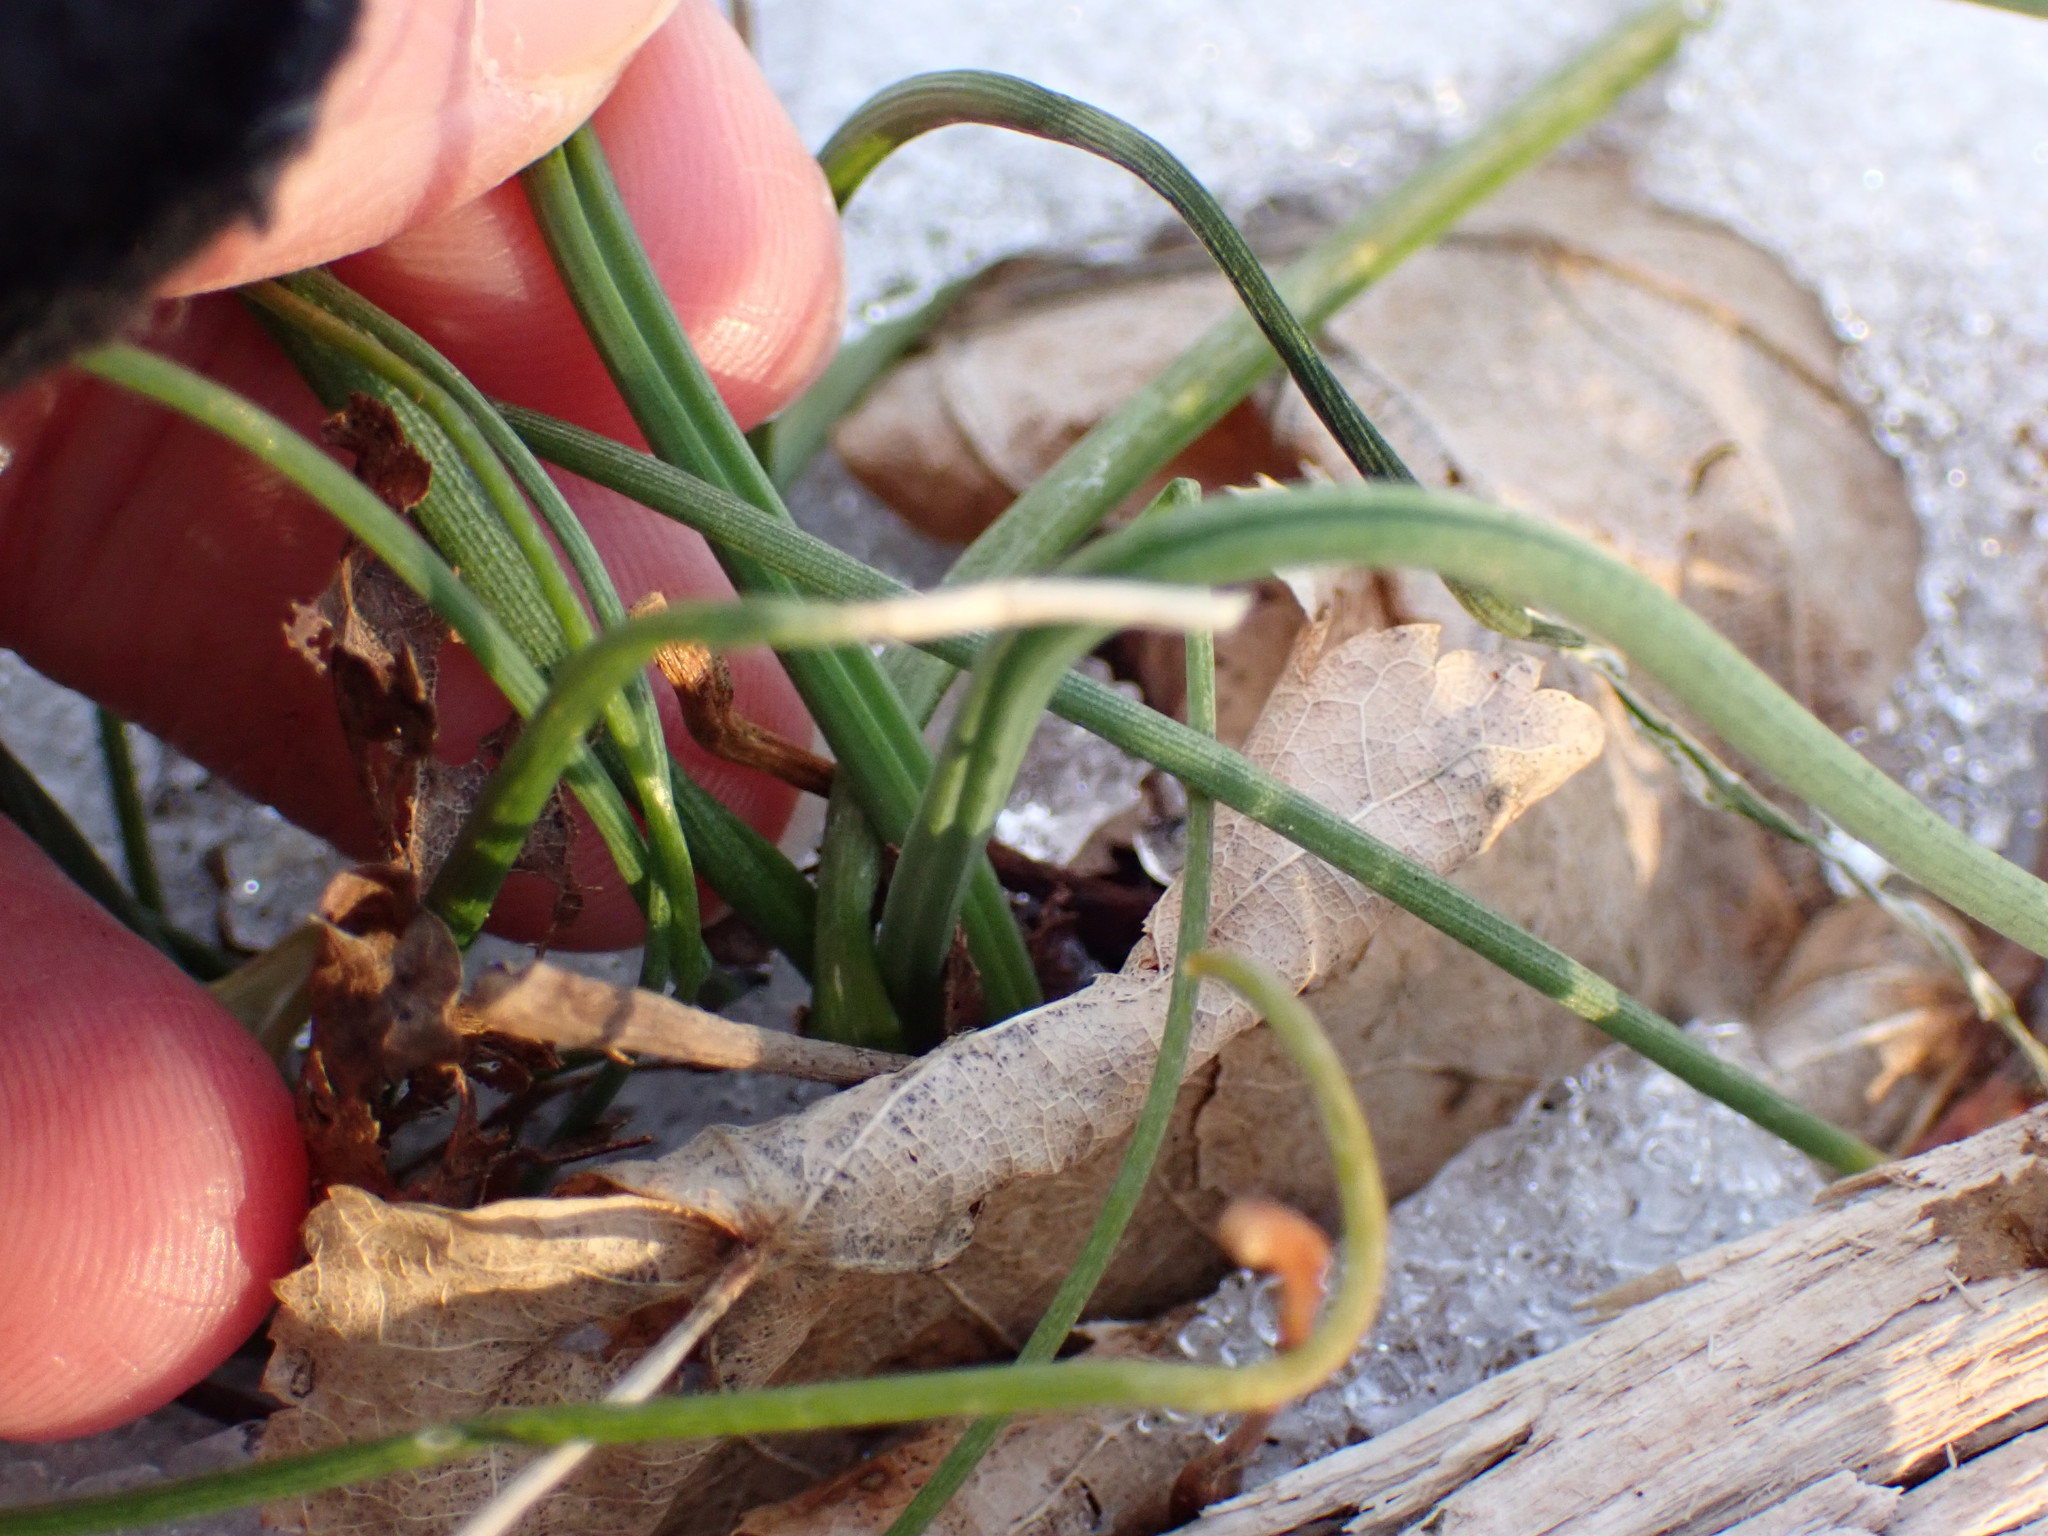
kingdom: Plantae
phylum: Tracheophyta
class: Liliopsida
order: Asparagales
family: Amaryllidaceae
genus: Allium
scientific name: Allium vineale
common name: Crow garlic
